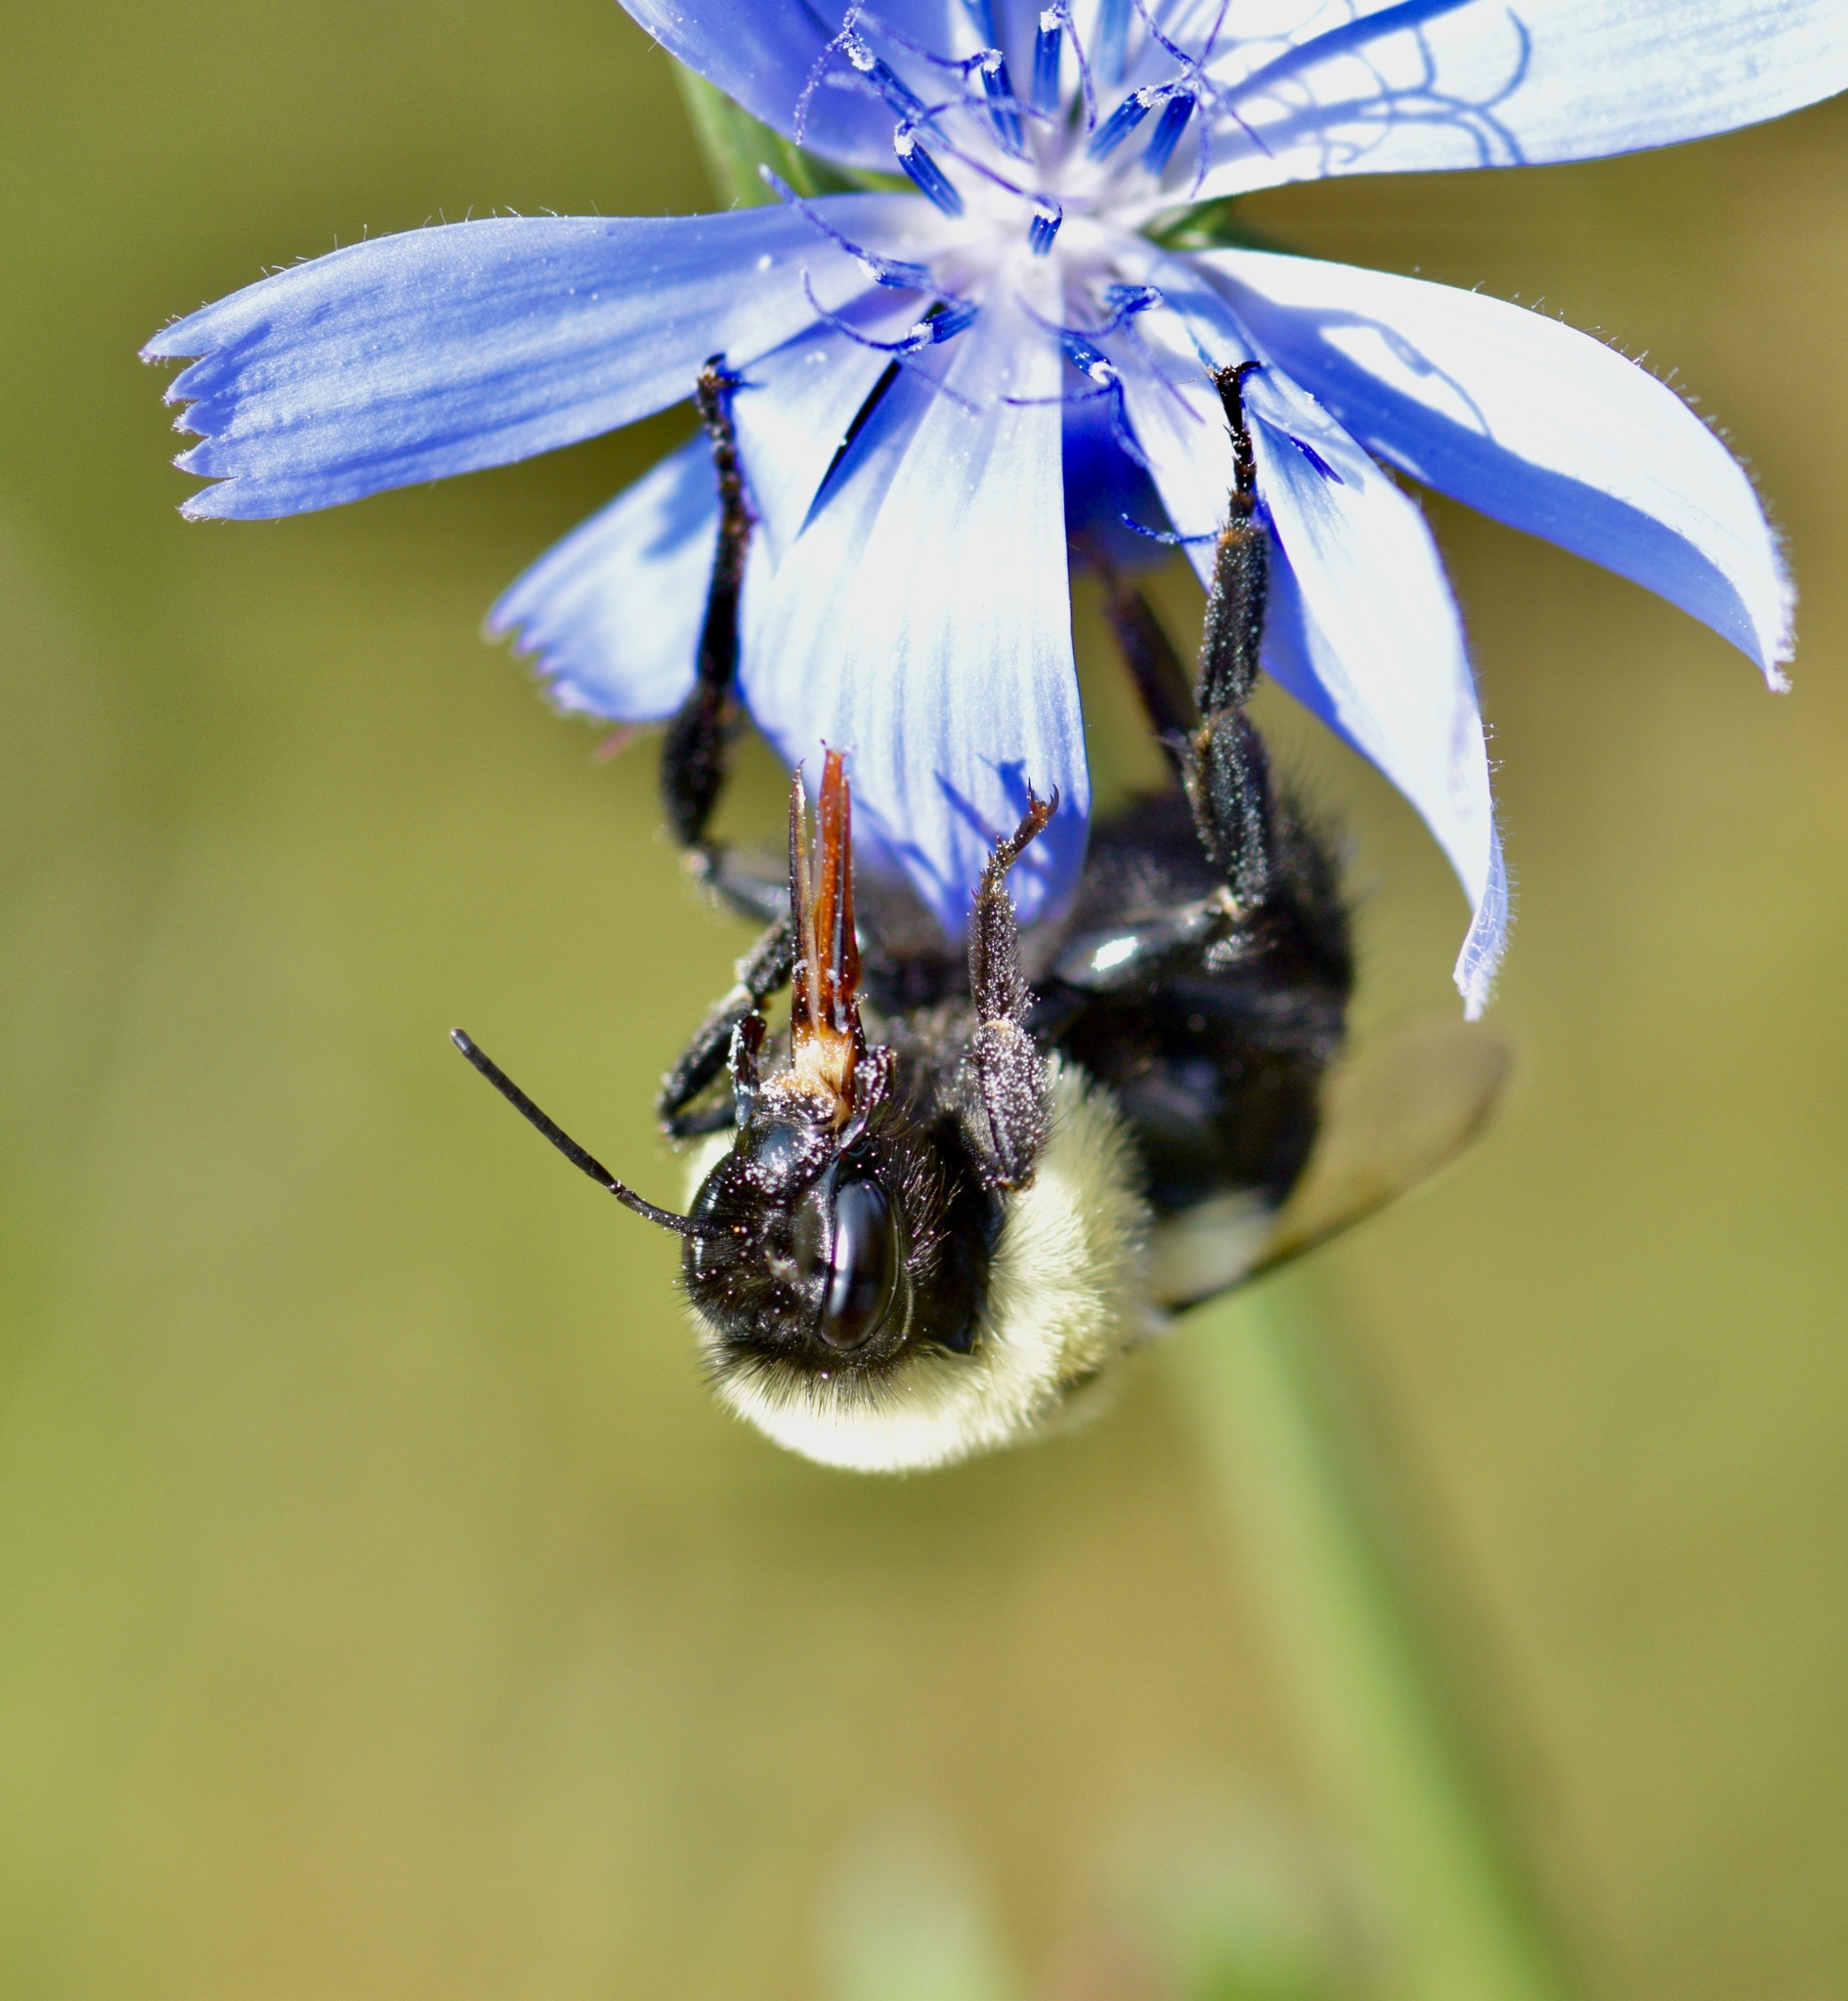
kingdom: Animalia
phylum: Arthropoda
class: Insecta
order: Hymenoptera
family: Apidae
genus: Bombus
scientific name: Bombus impatiens
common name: Common eastern bumble bee
